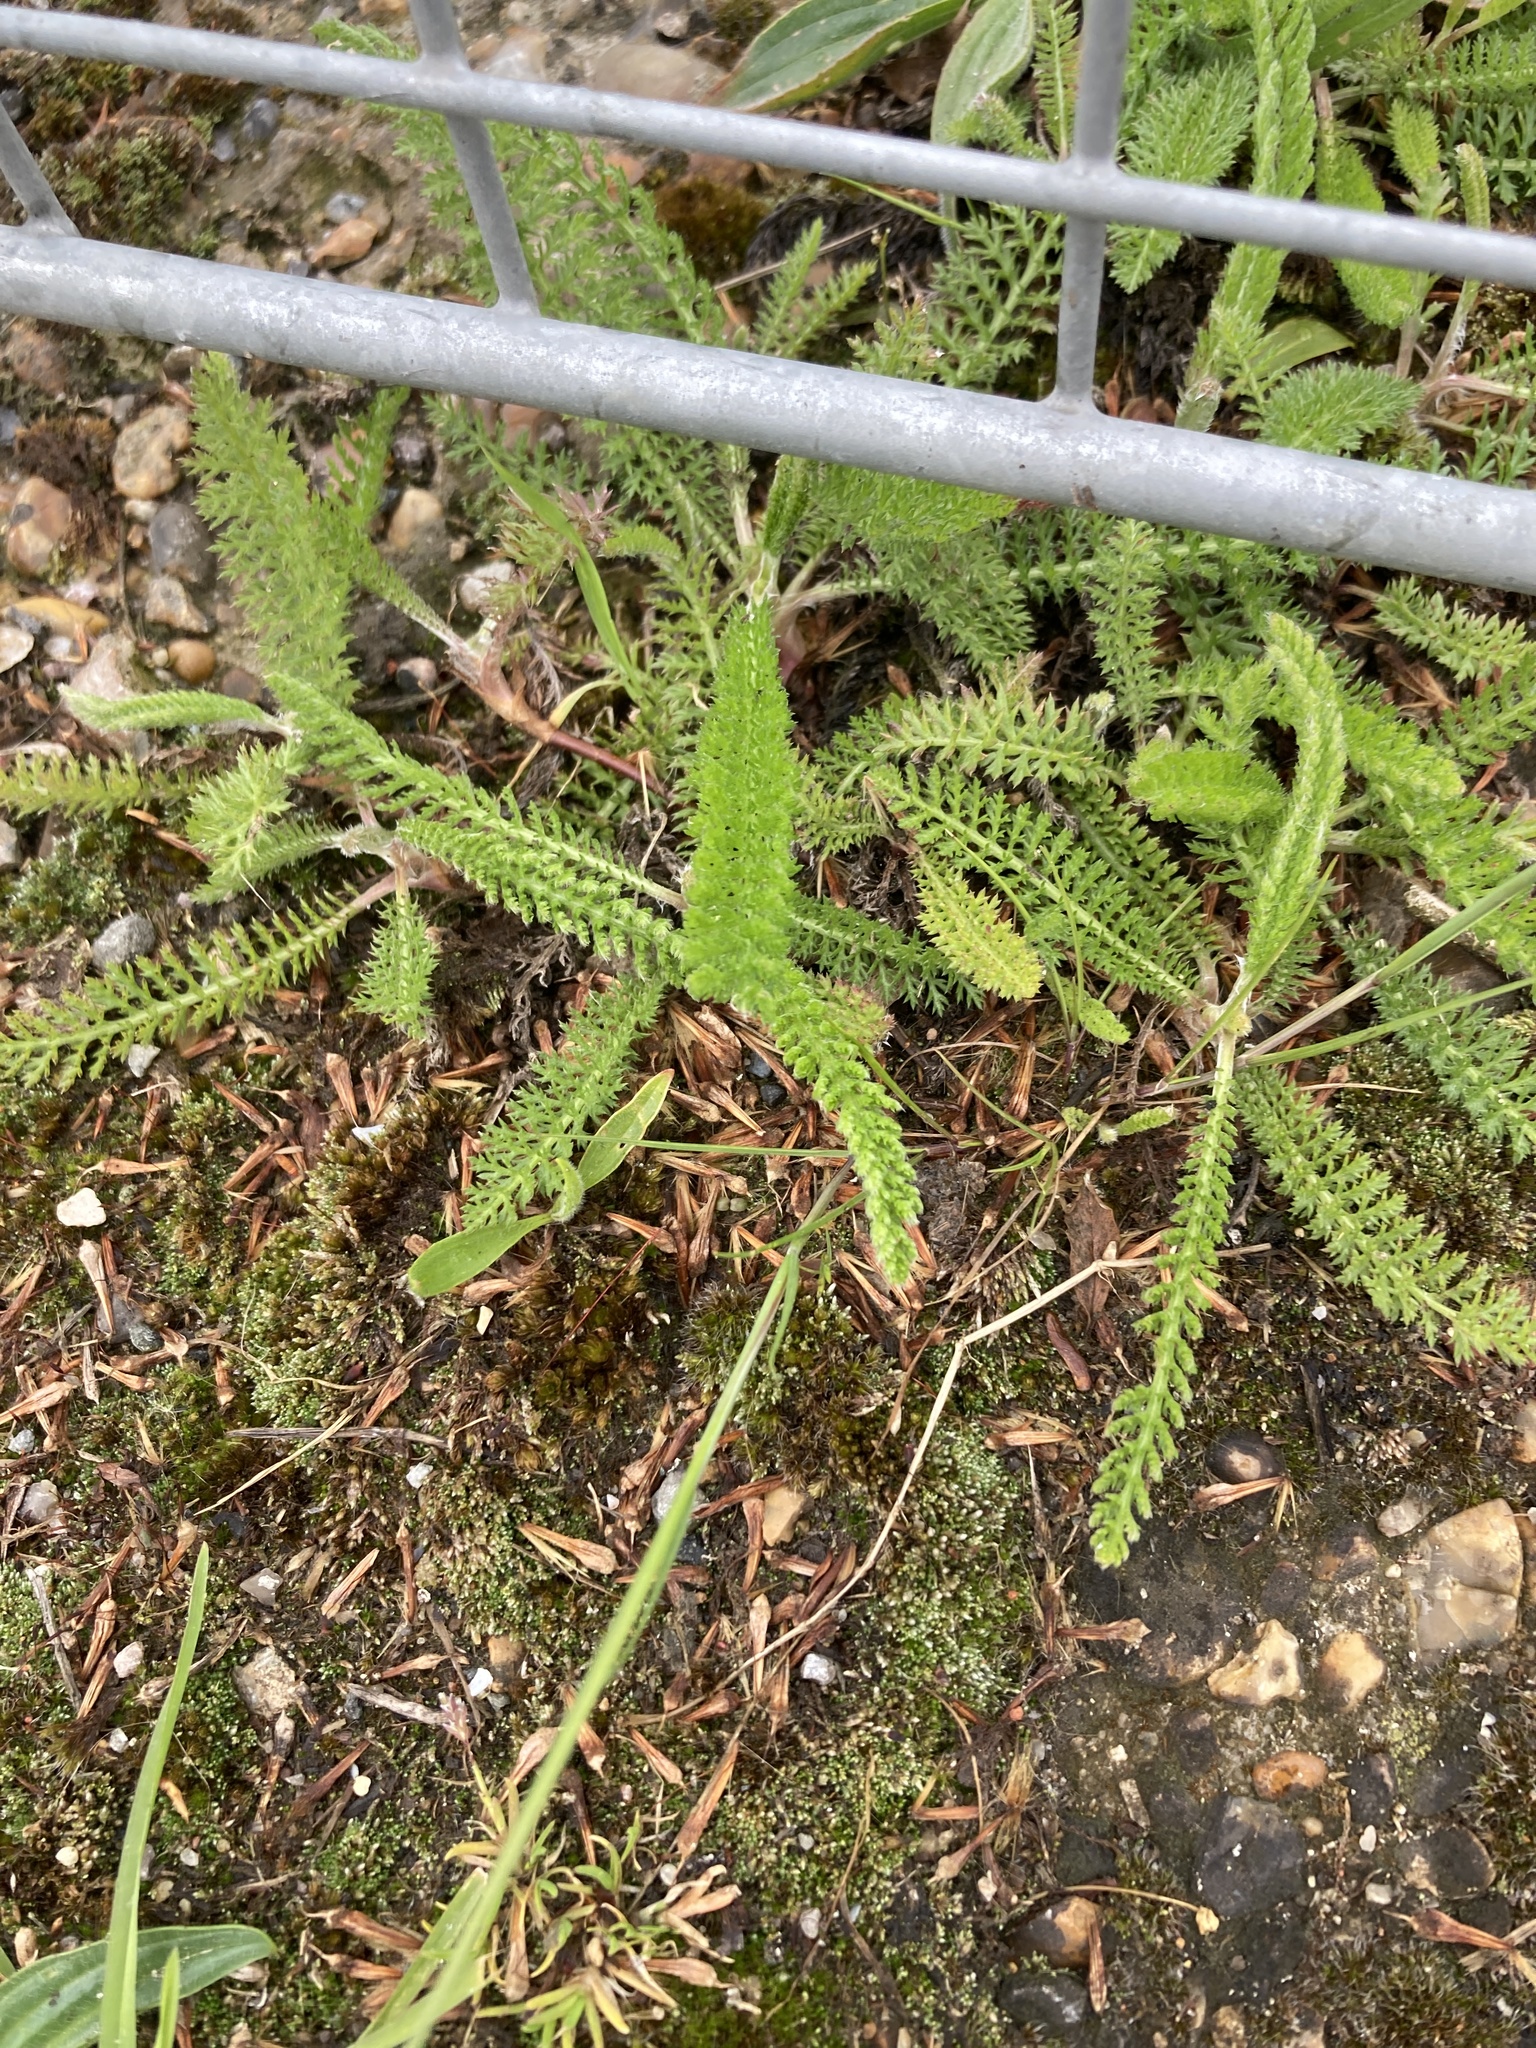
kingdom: Plantae
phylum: Tracheophyta
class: Magnoliopsida
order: Asterales
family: Asteraceae
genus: Achillea
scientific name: Achillea millefolium
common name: Yarrow
